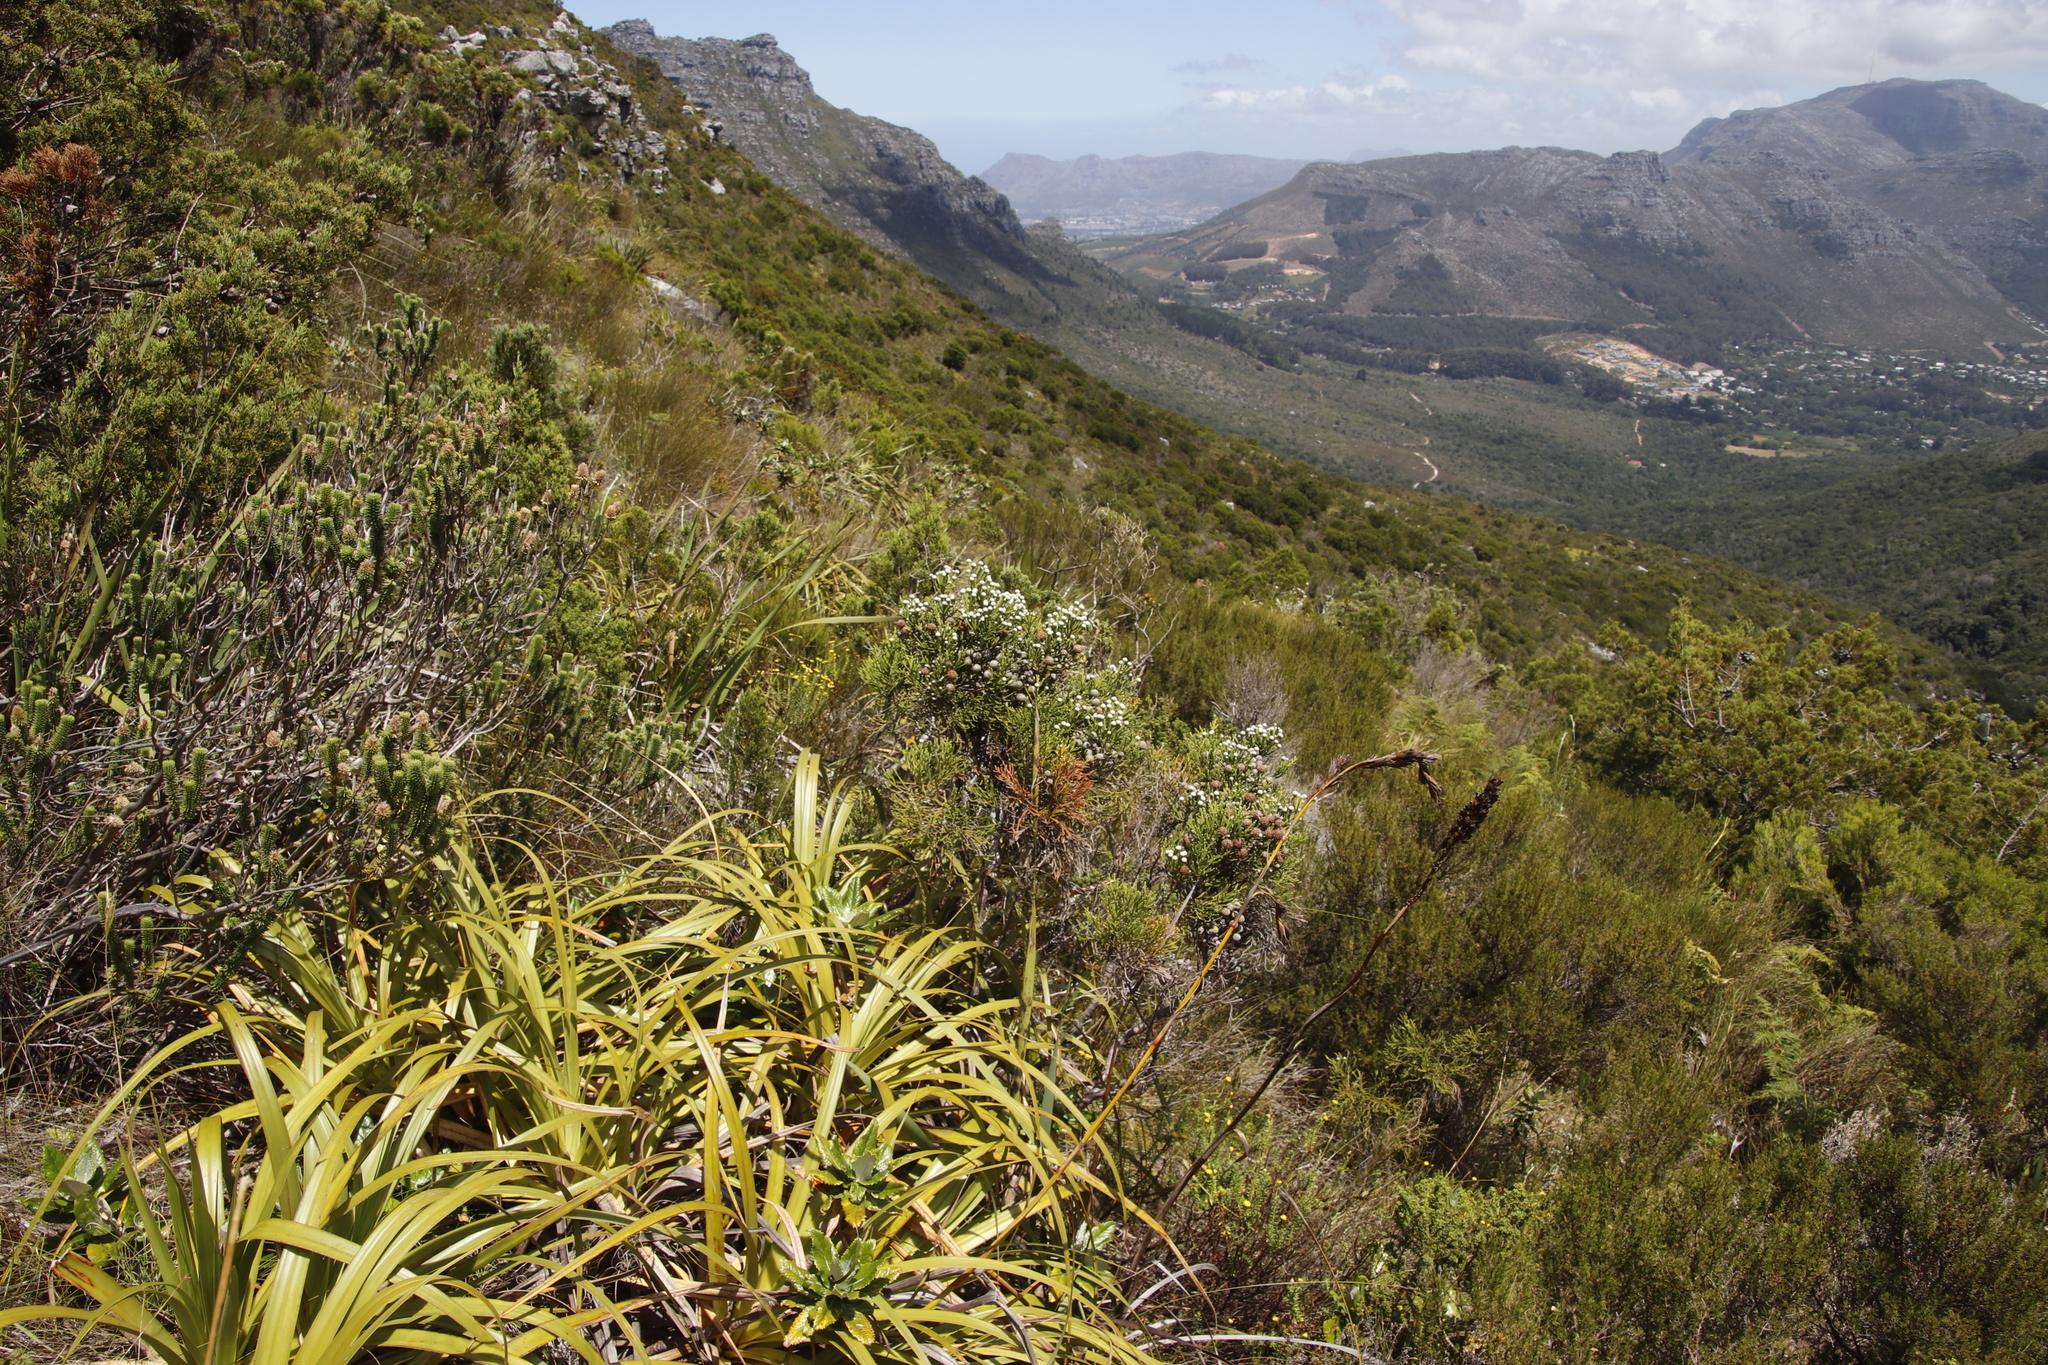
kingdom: Plantae
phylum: Tracheophyta
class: Liliopsida
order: Poales
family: Cyperaceae
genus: Tetraria
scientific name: Tetraria thermalis
